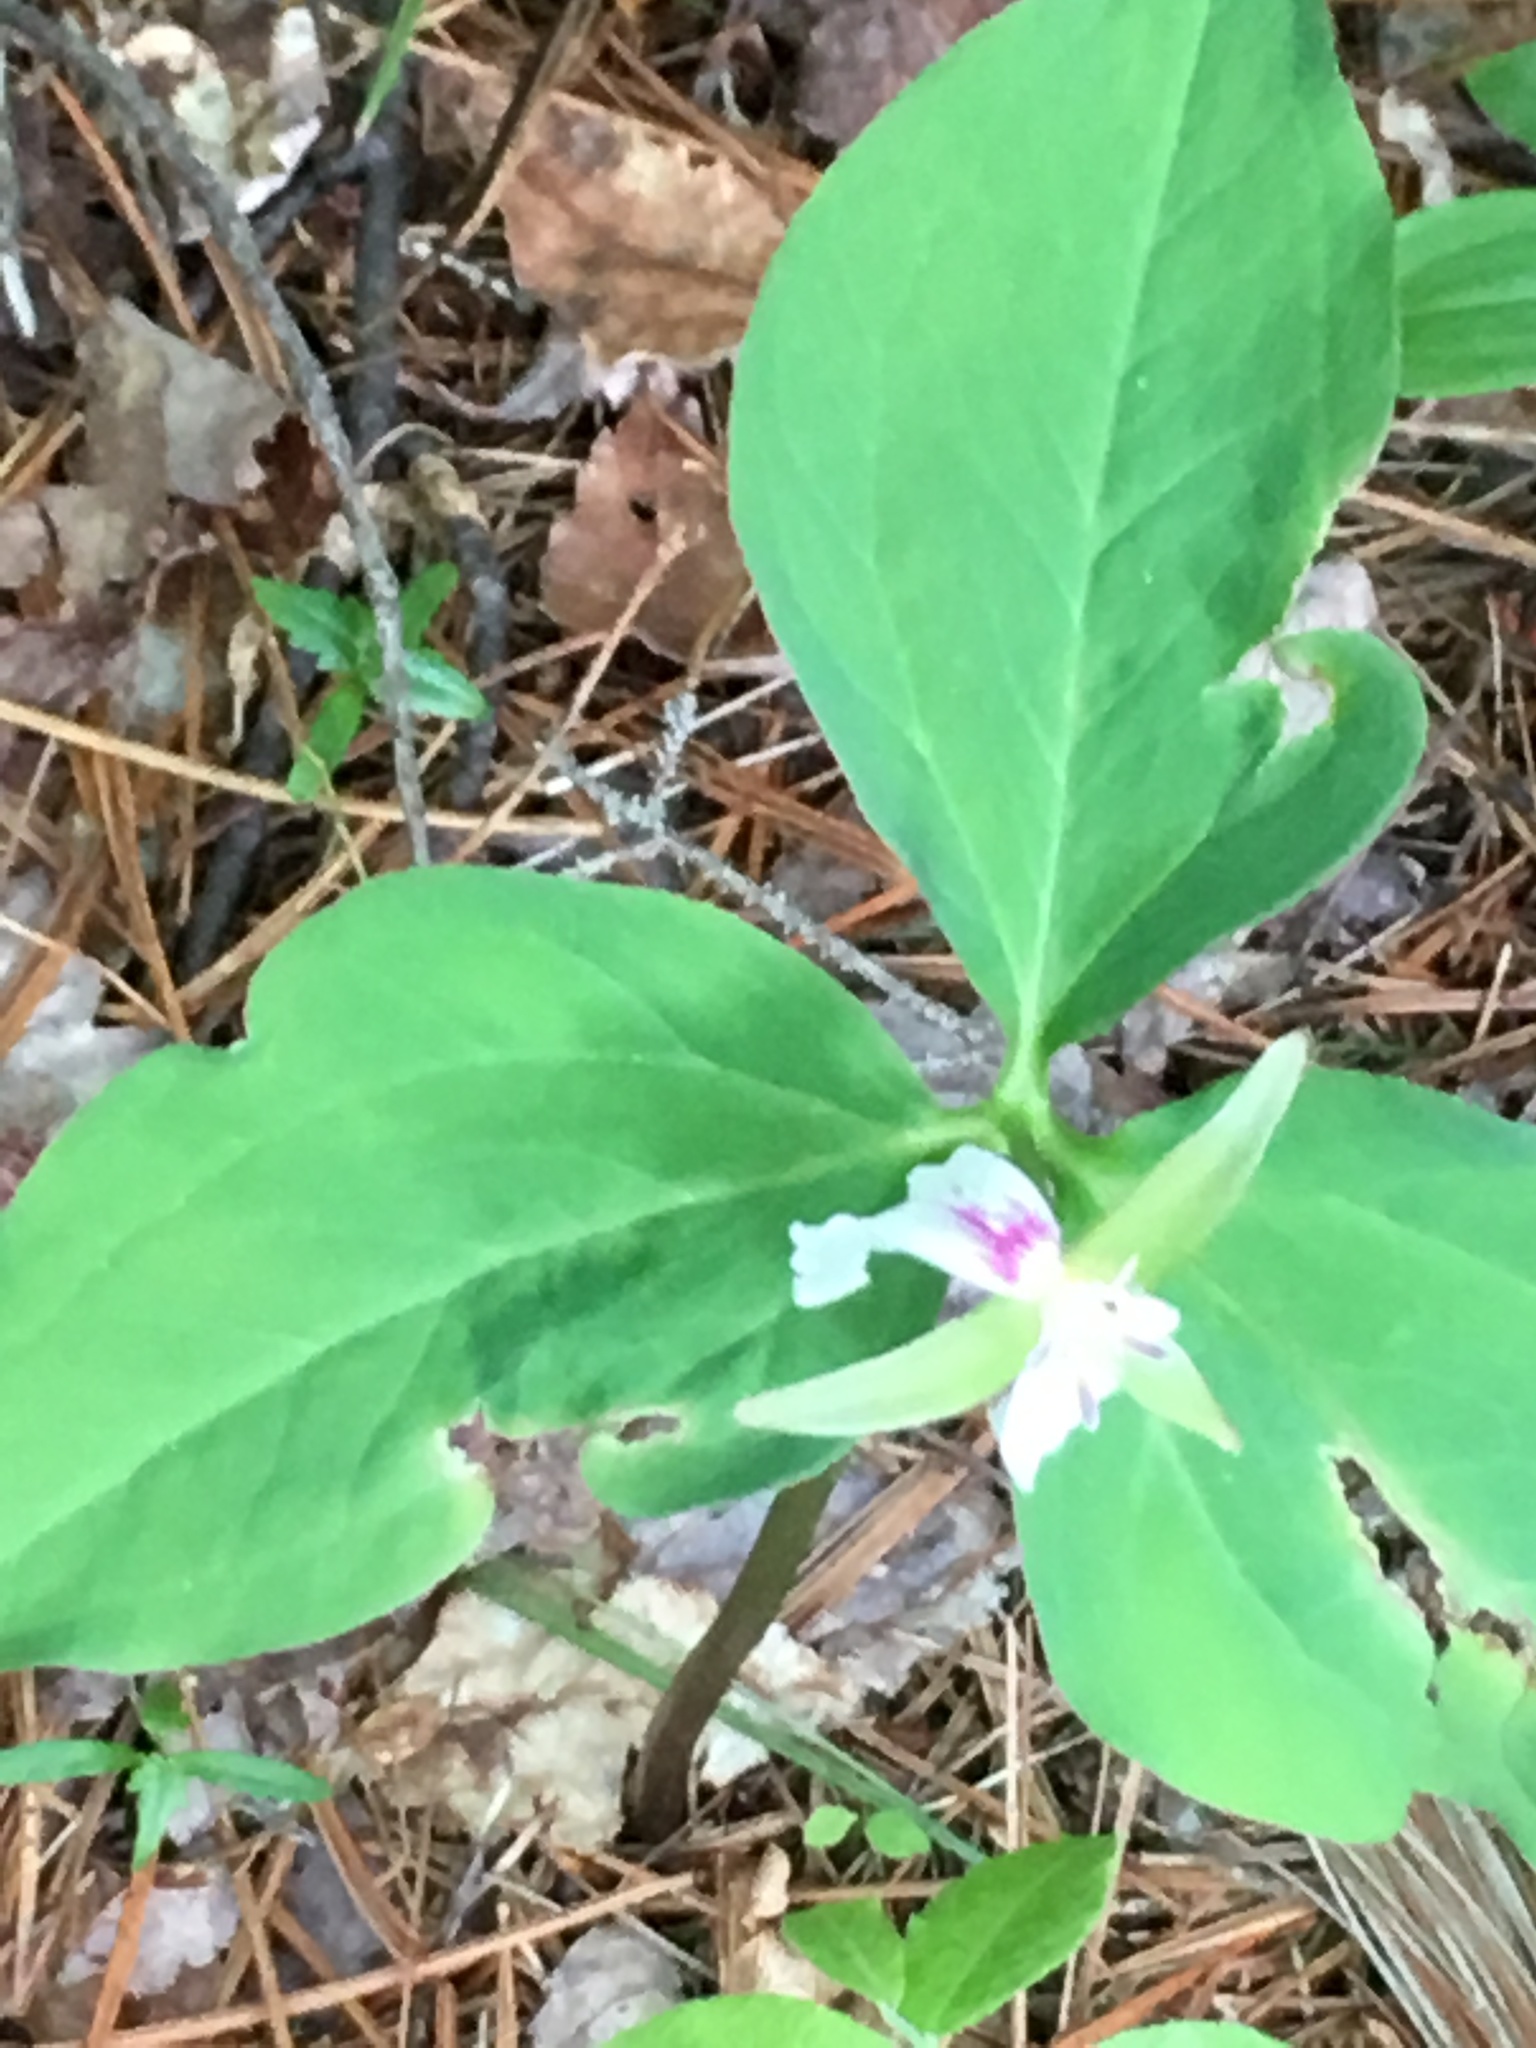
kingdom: Plantae
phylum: Tracheophyta
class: Liliopsida
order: Liliales
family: Melanthiaceae
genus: Trillium
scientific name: Trillium undulatum
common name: Paint trillium
